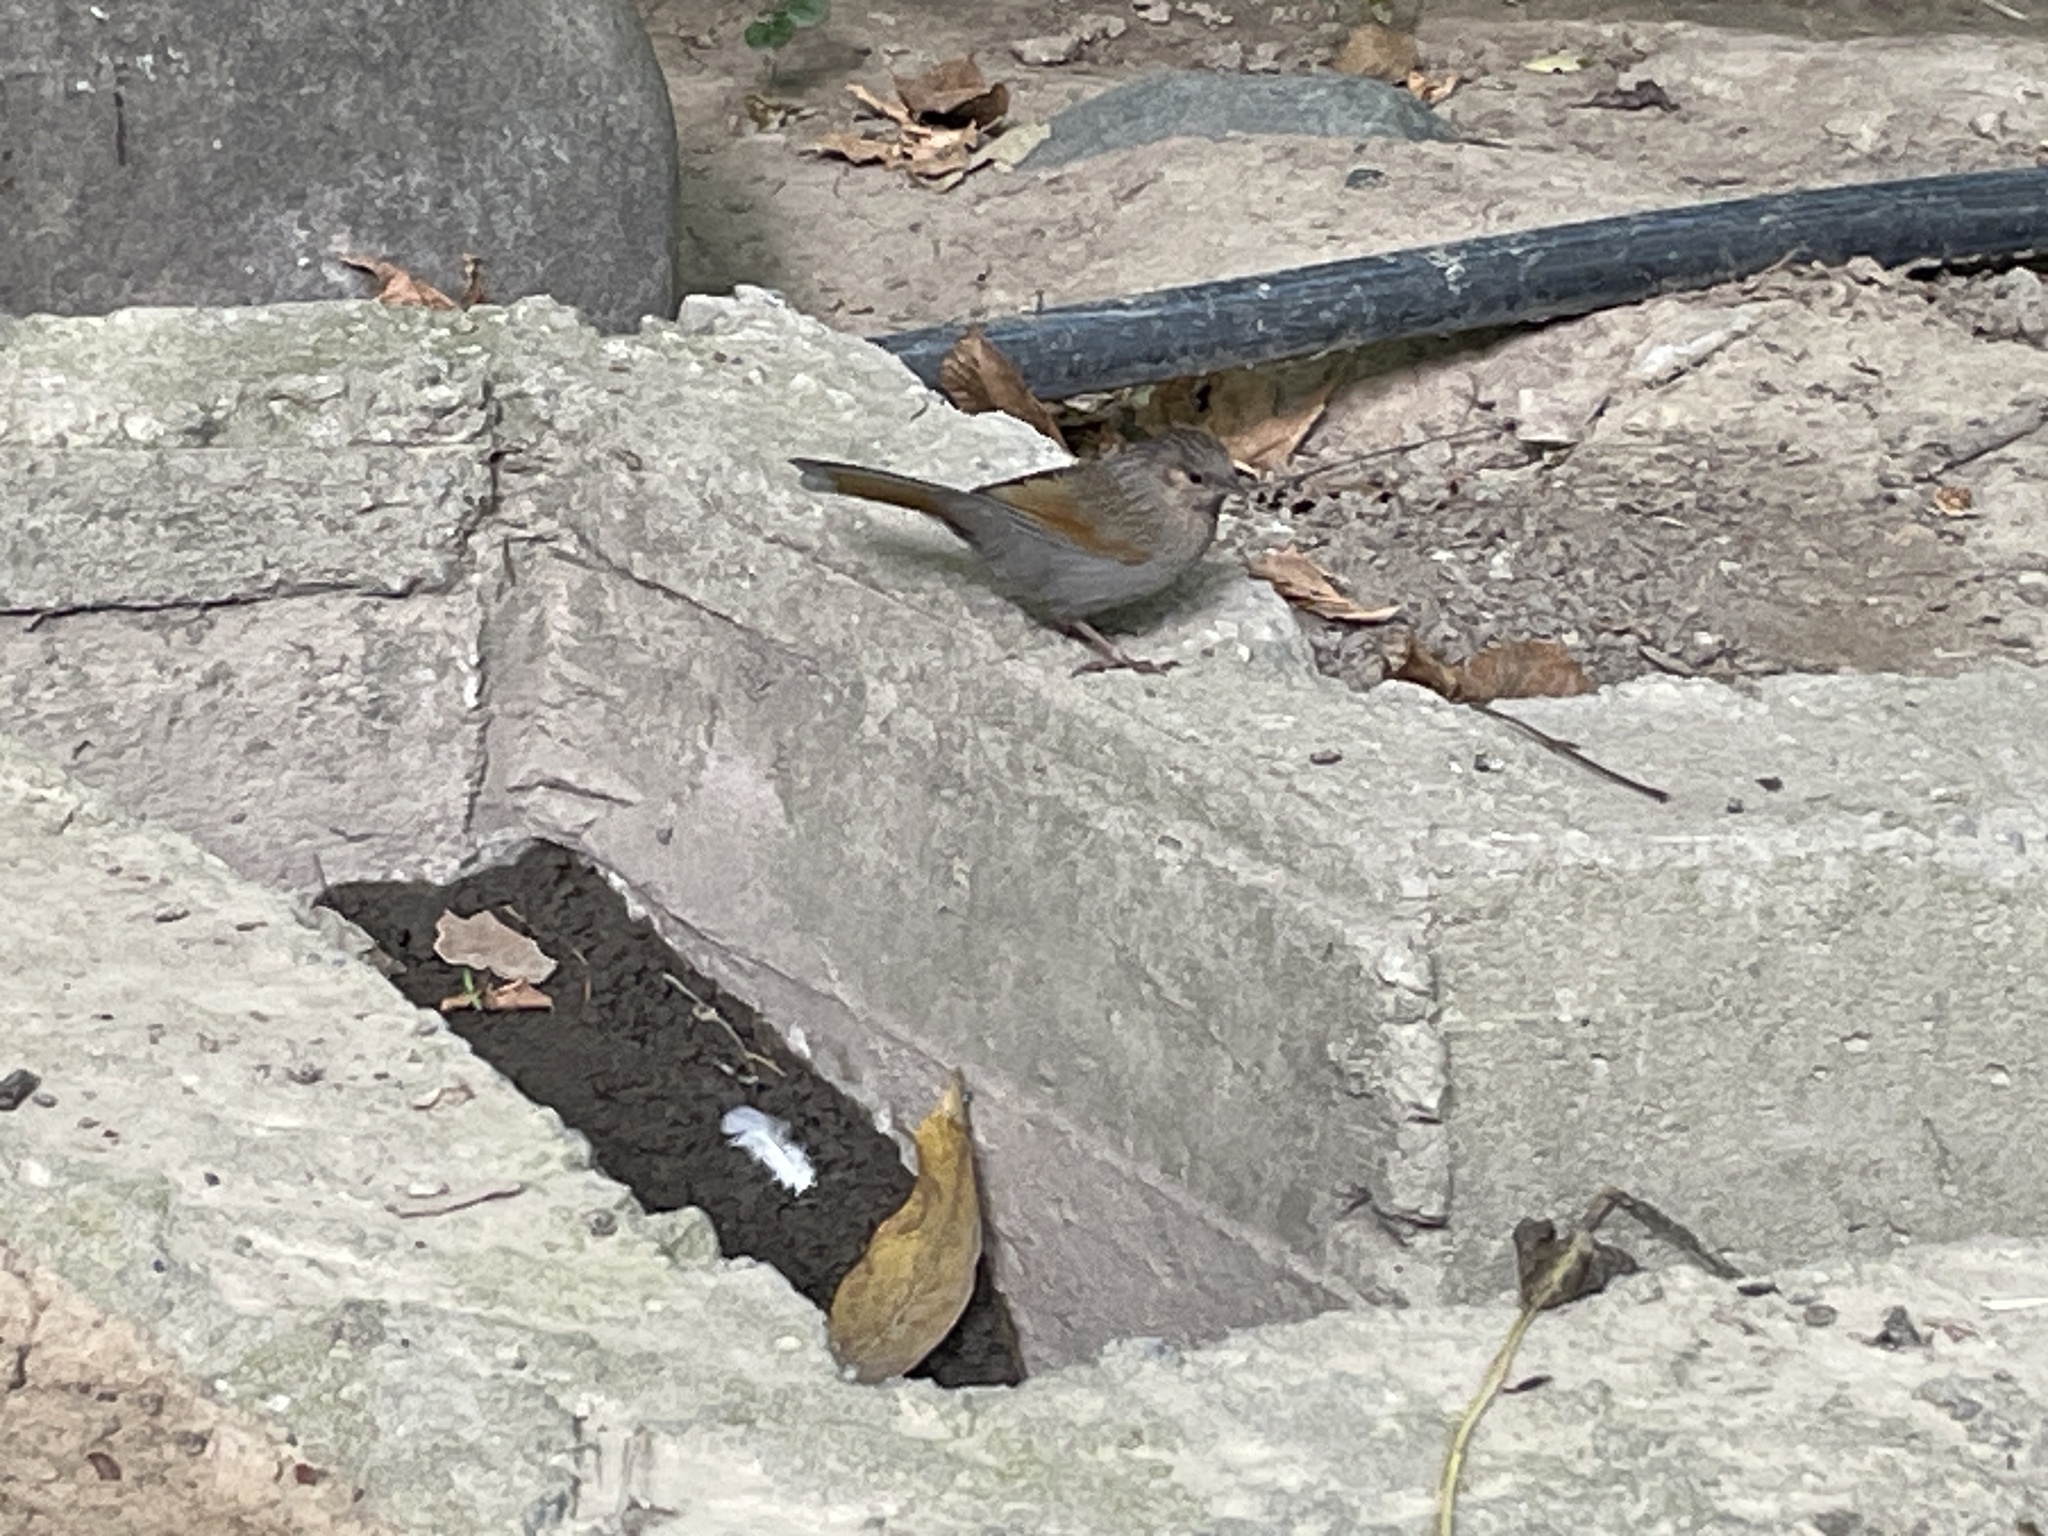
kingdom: Animalia
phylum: Chordata
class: Aves
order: Passeriformes
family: Leiothrichidae
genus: Trochalopteron
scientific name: Trochalopteron lineatum
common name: Streaked laughingthrush
